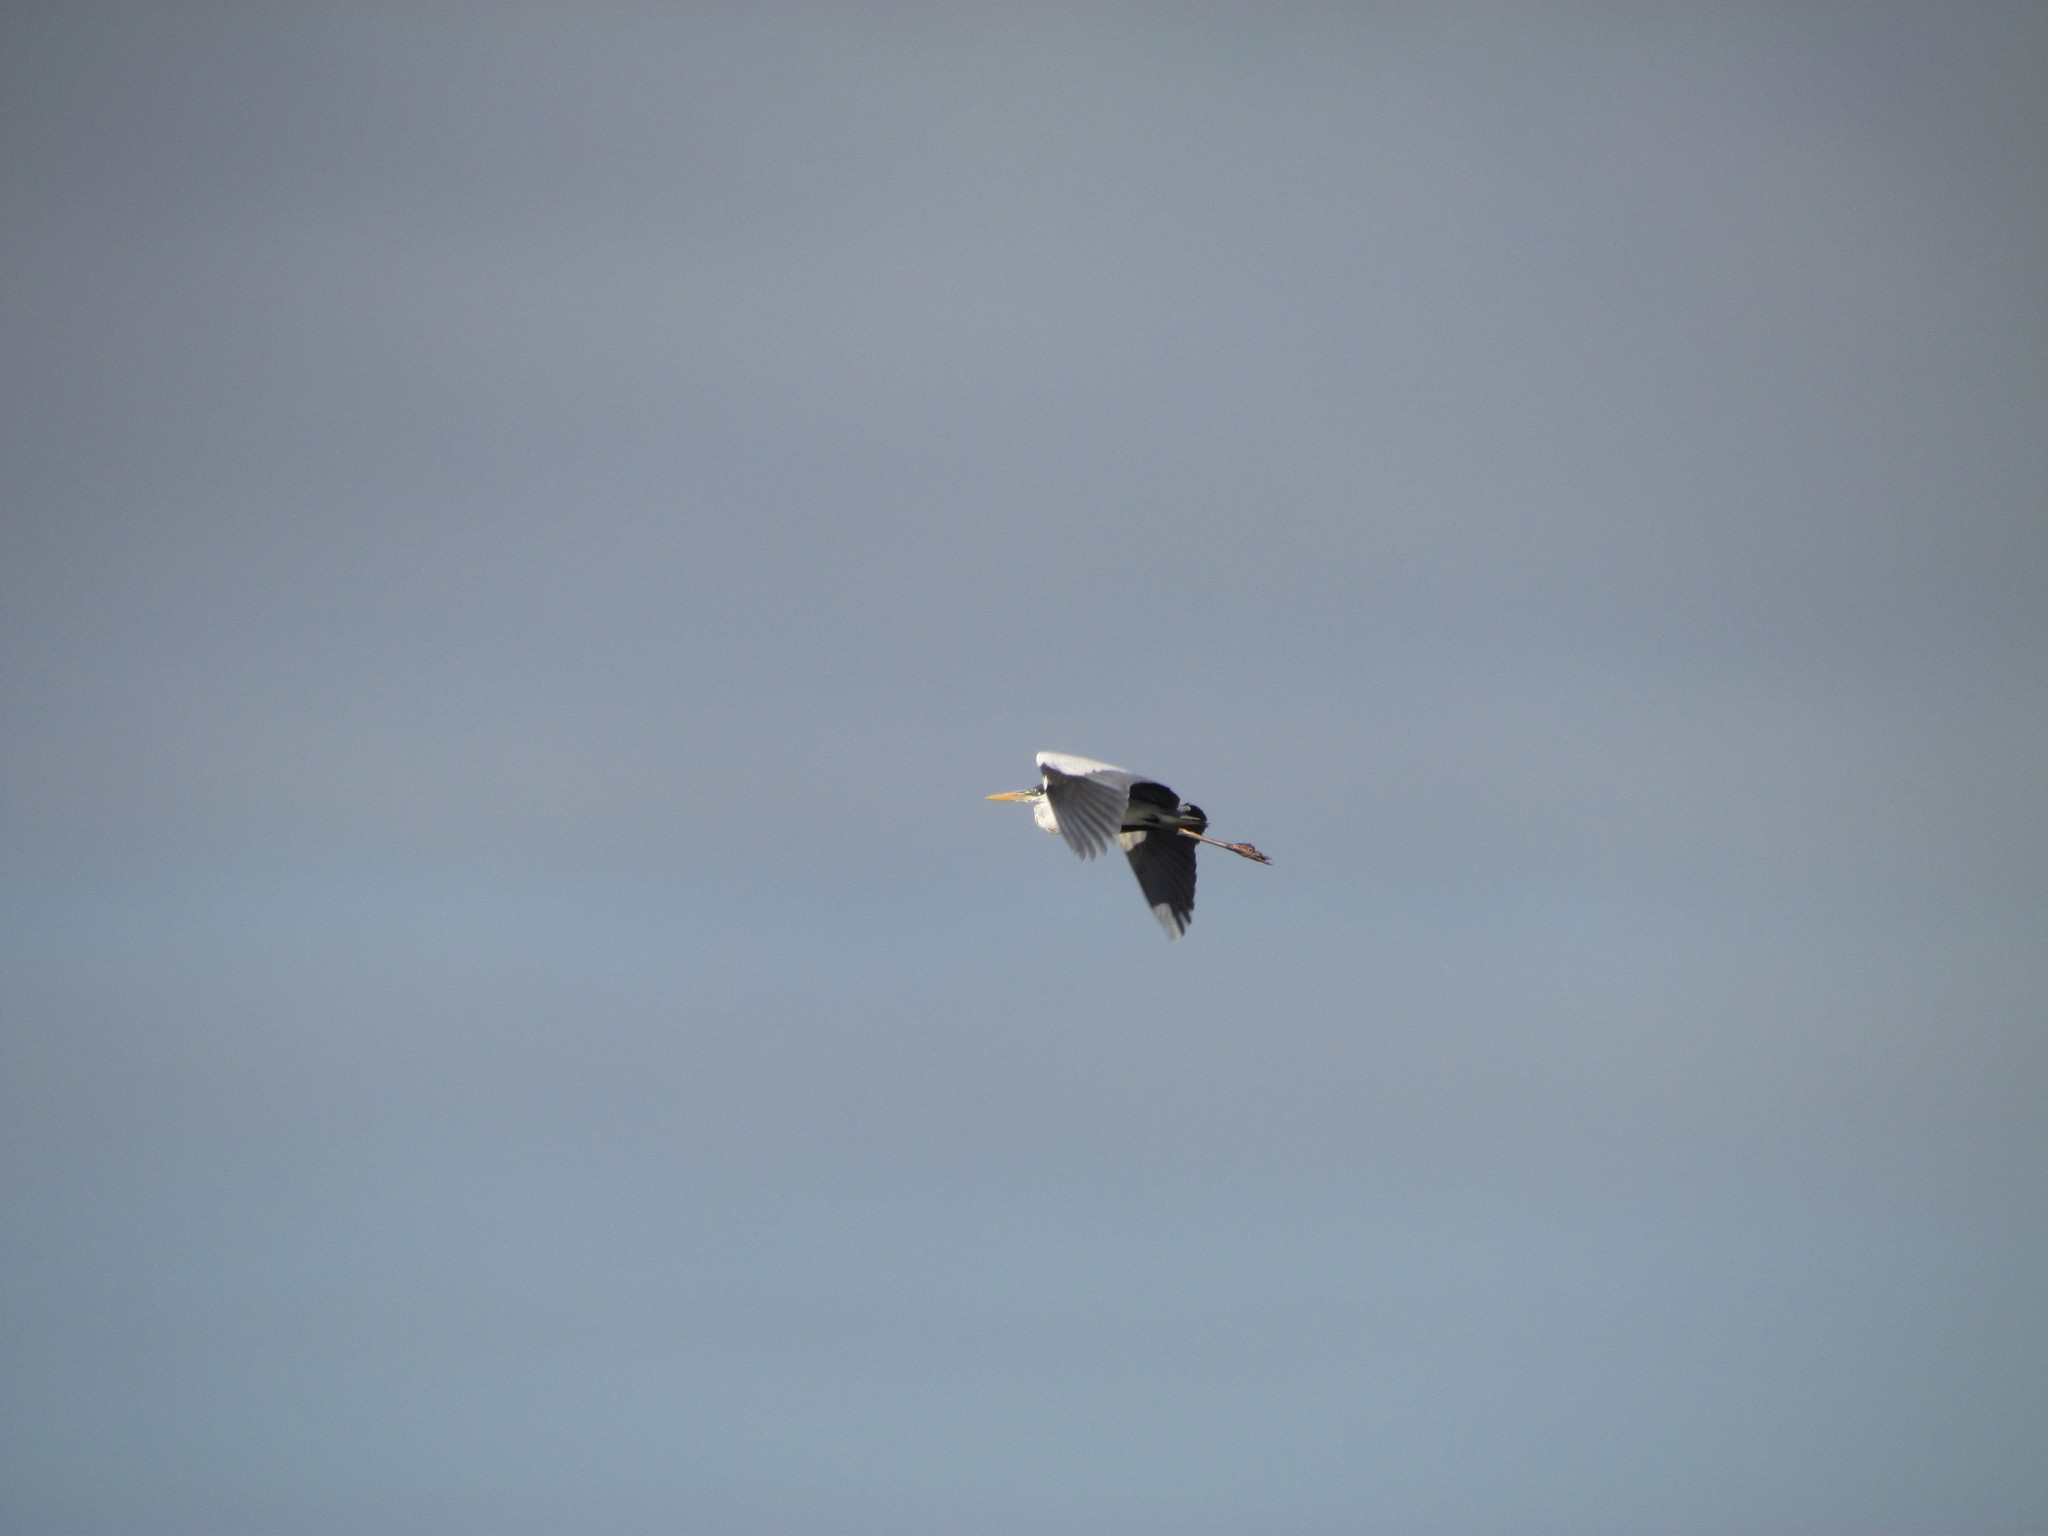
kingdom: Animalia
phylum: Chordata
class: Aves
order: Pelecaniformes
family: Ardeidae
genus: Ardea
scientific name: Ardea cocoi
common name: Cocoi heron
